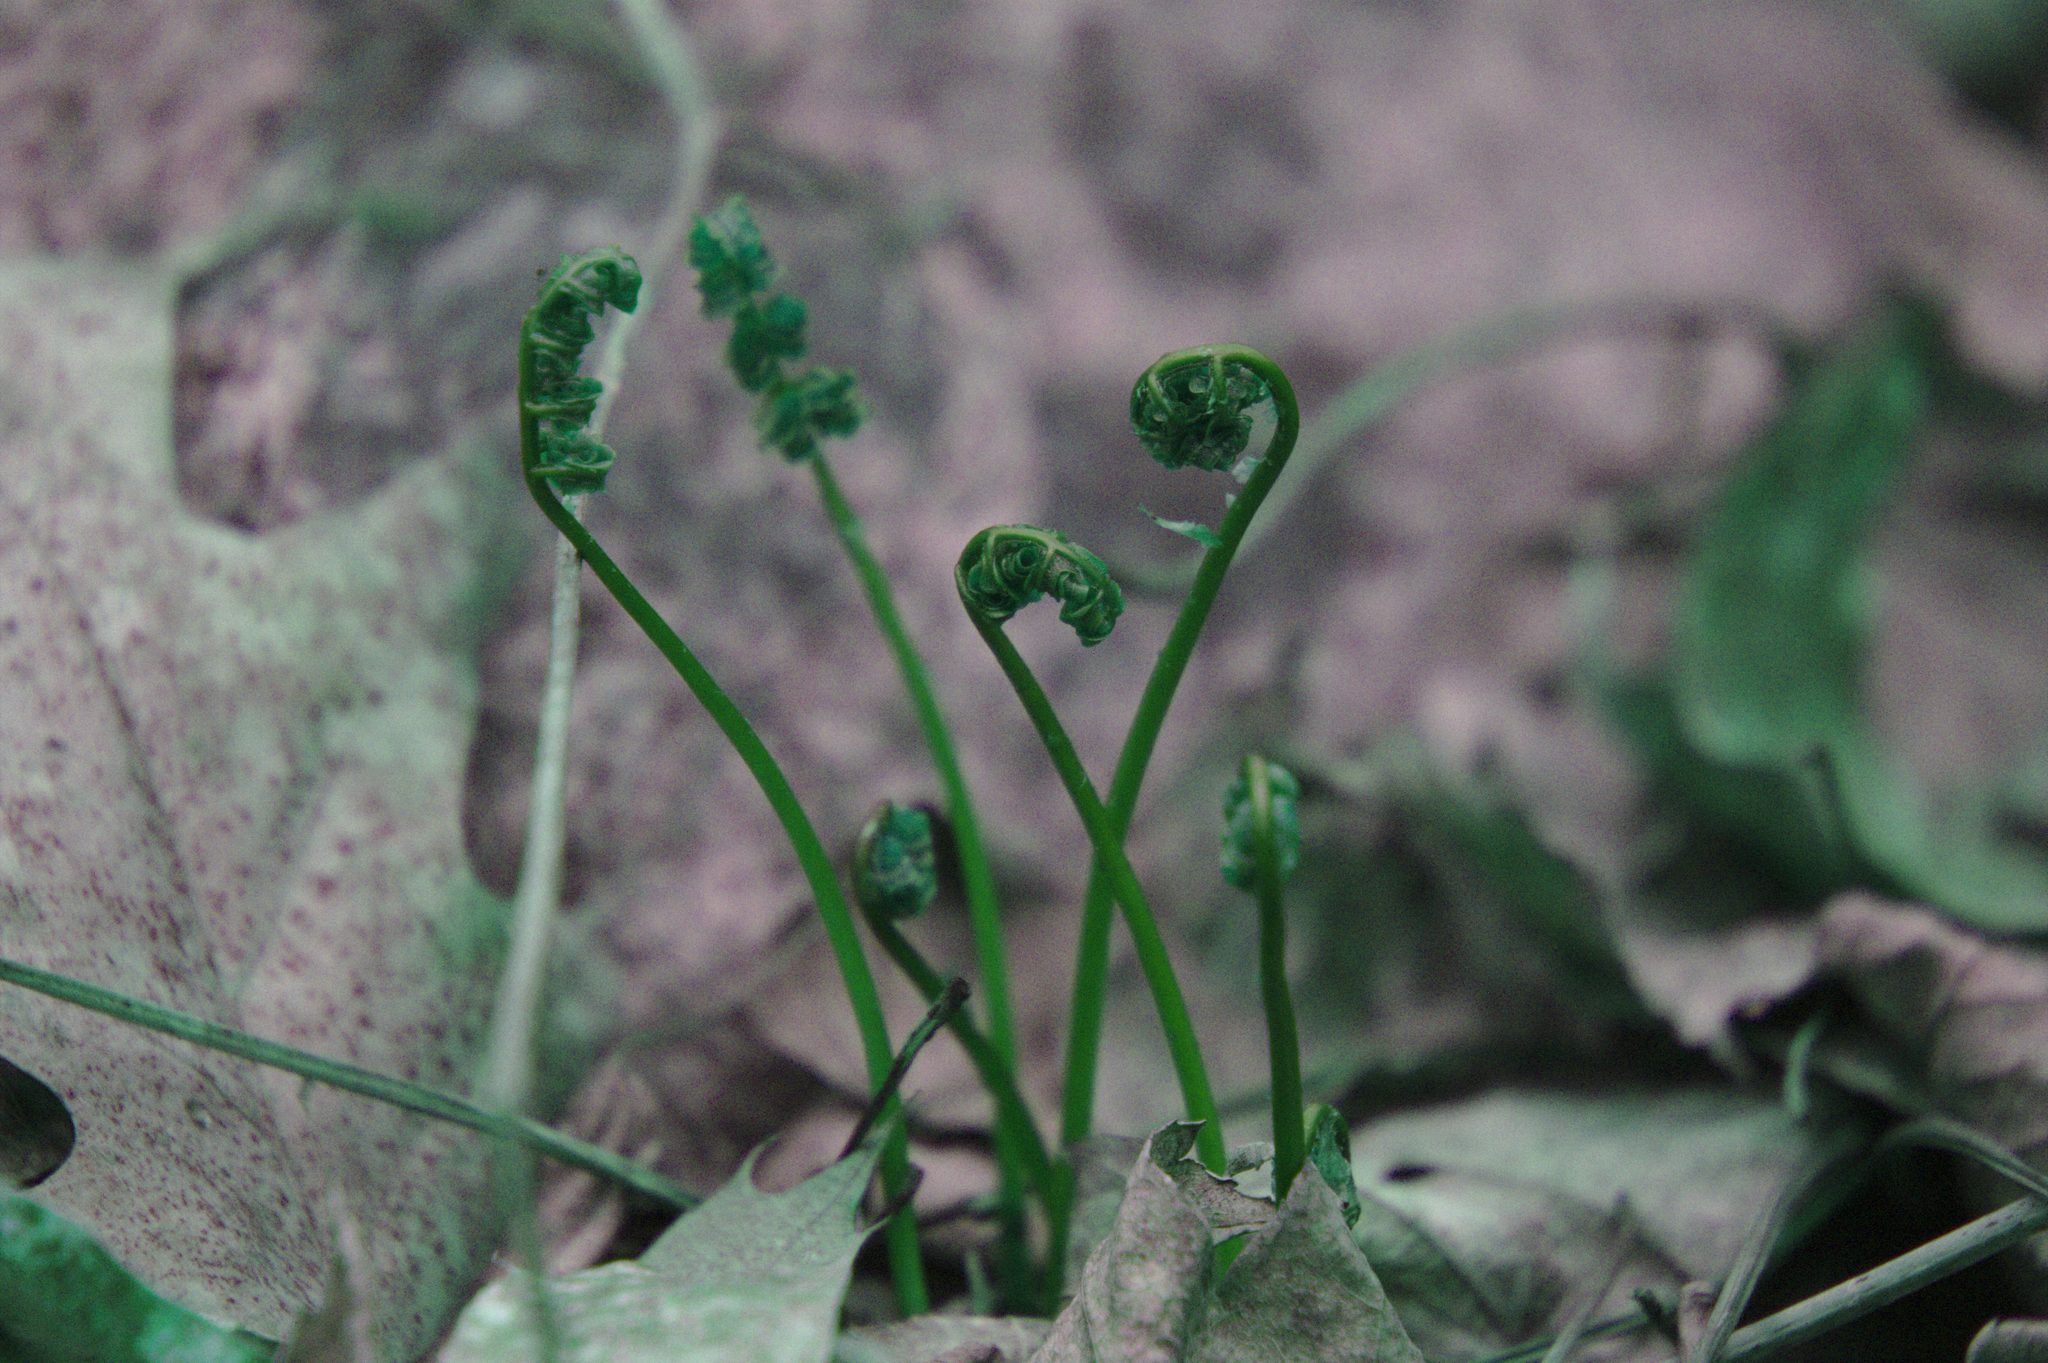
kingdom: Plantae
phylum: Tracheophyta
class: Polypodiopsida
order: Polypodiales
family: Onocleaceae
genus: Onoclea
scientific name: Onoclea sensibilis
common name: Sensitive fern
